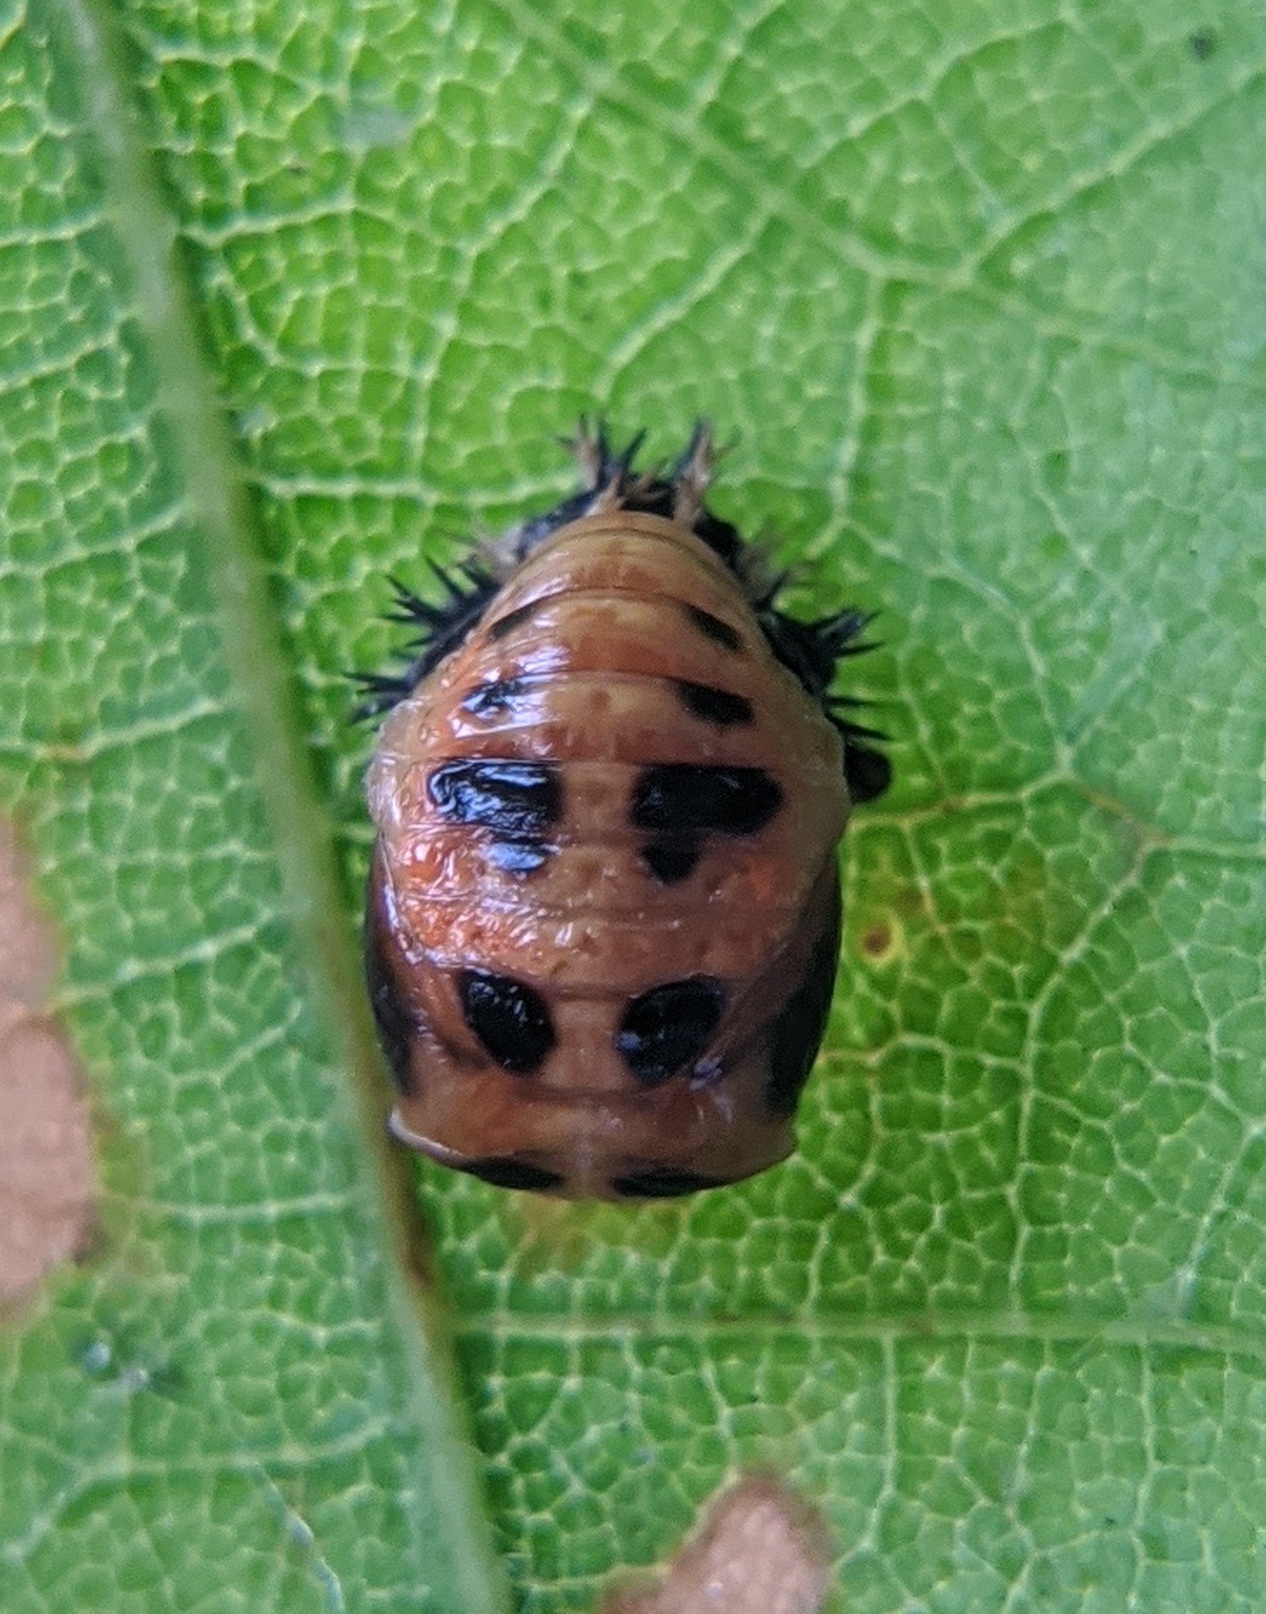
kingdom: Animalia
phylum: Arthropoda
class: Insecta
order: Coleoptera
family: Coccinellidae
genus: Harmonia
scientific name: Harmonia axyridis
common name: Harlequin ladybird
